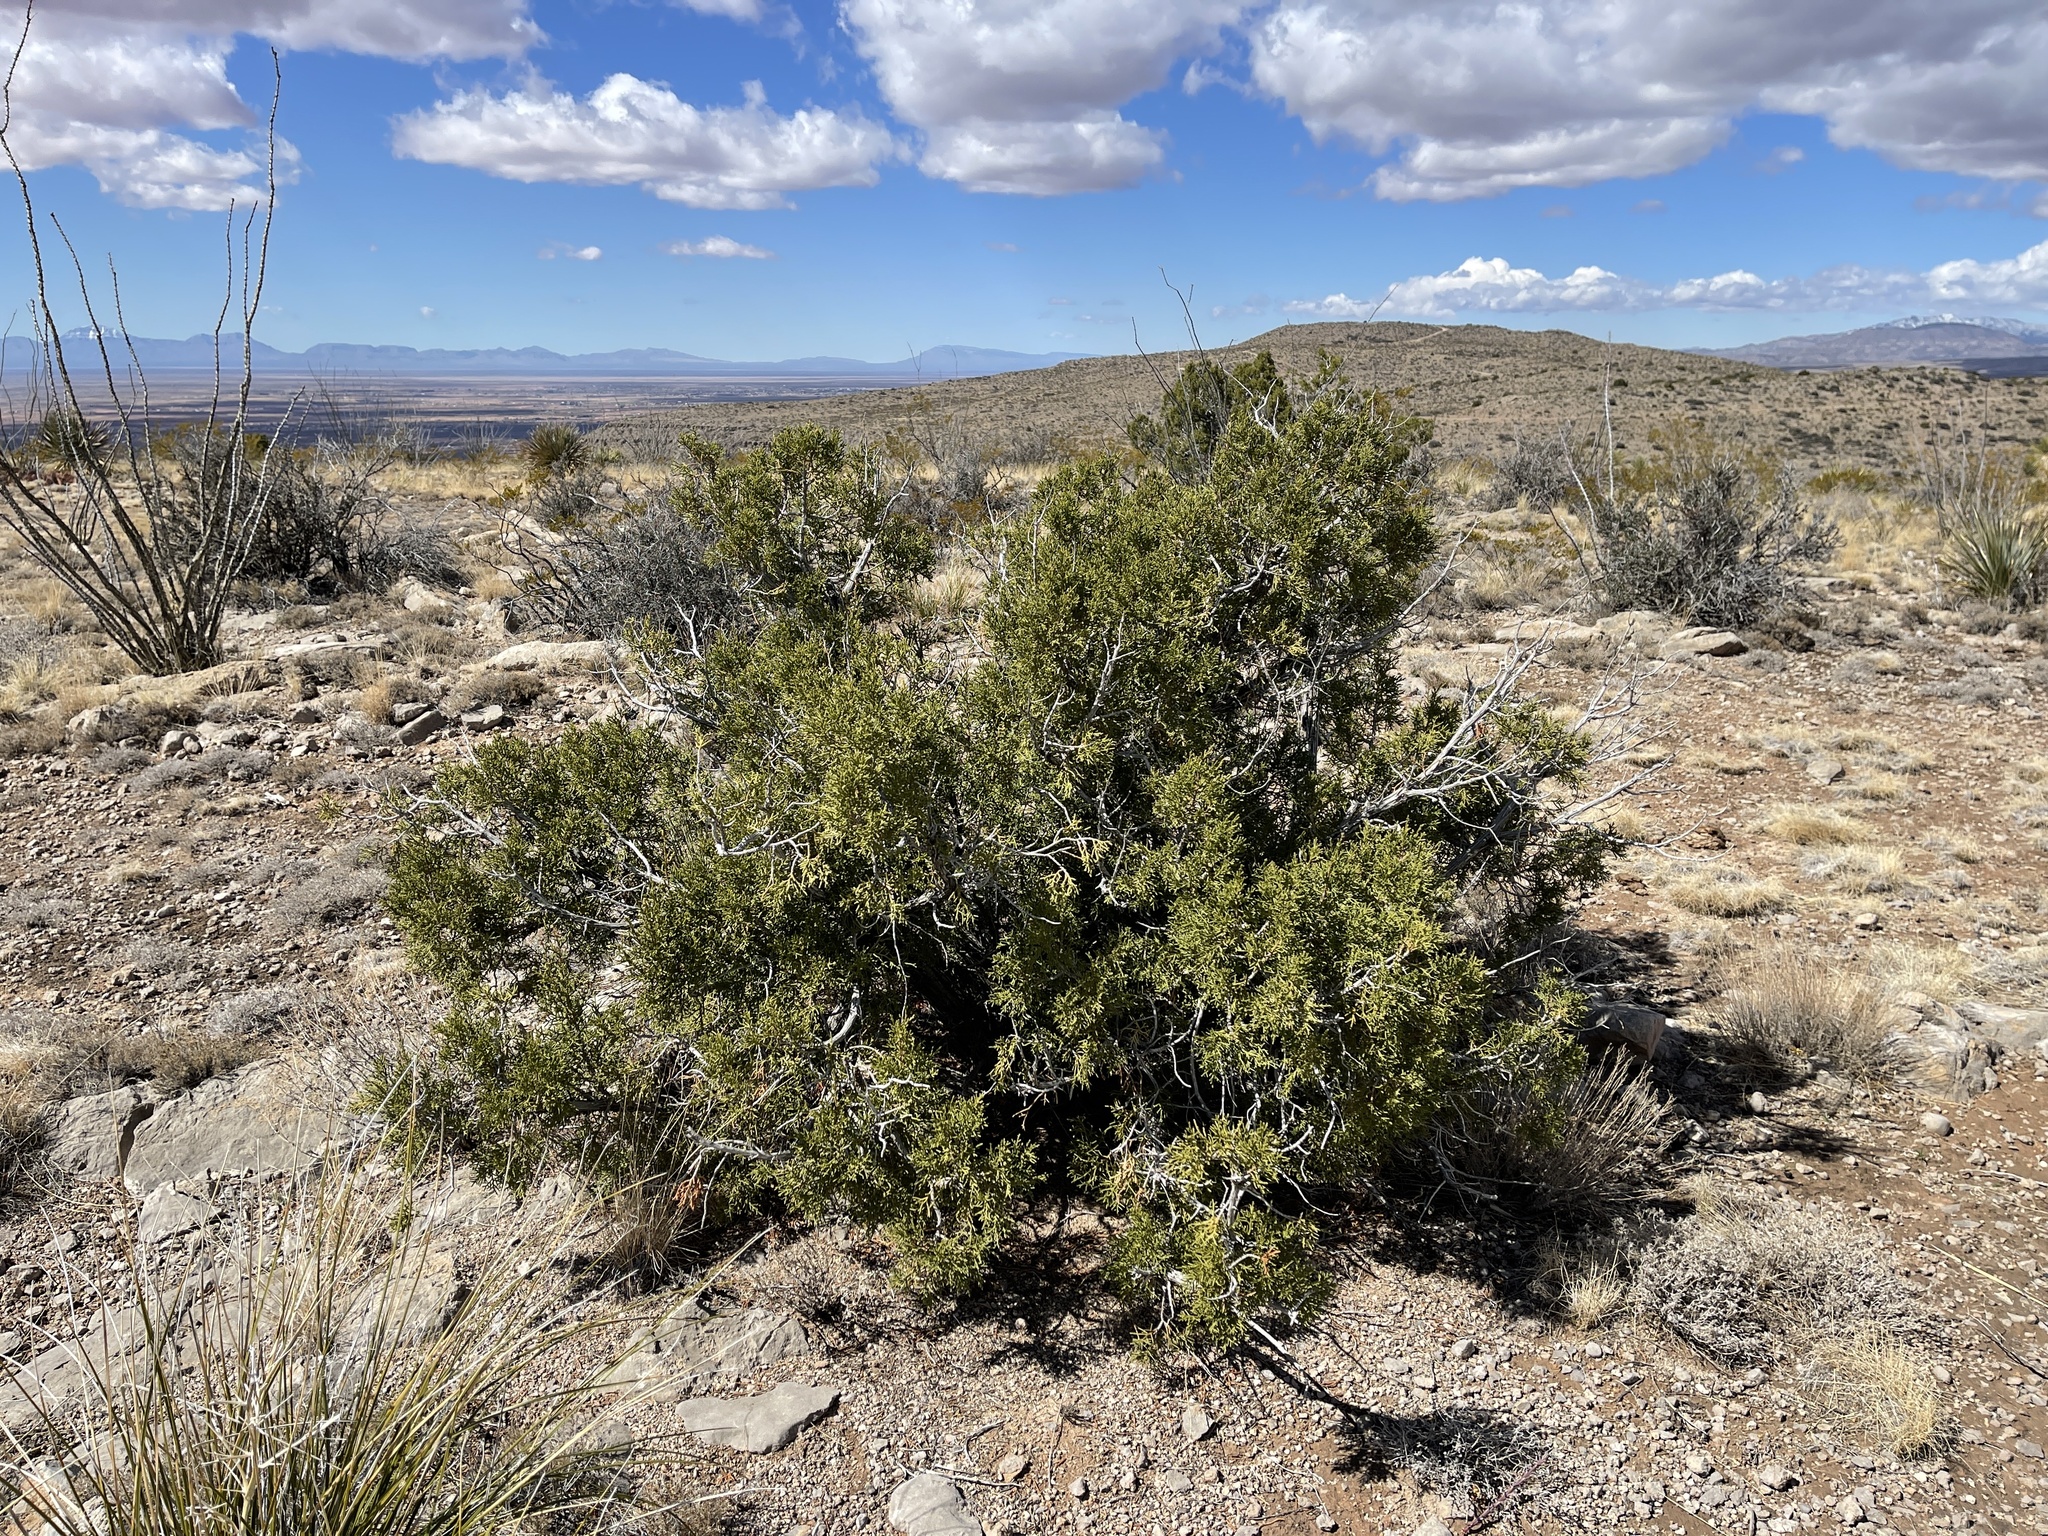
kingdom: Plantae
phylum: Tracheophyta
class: Pinopsida
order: Pinales
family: Cupressaceae
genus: Juniperus
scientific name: Juniperus monosperma
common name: One-seed juniper
